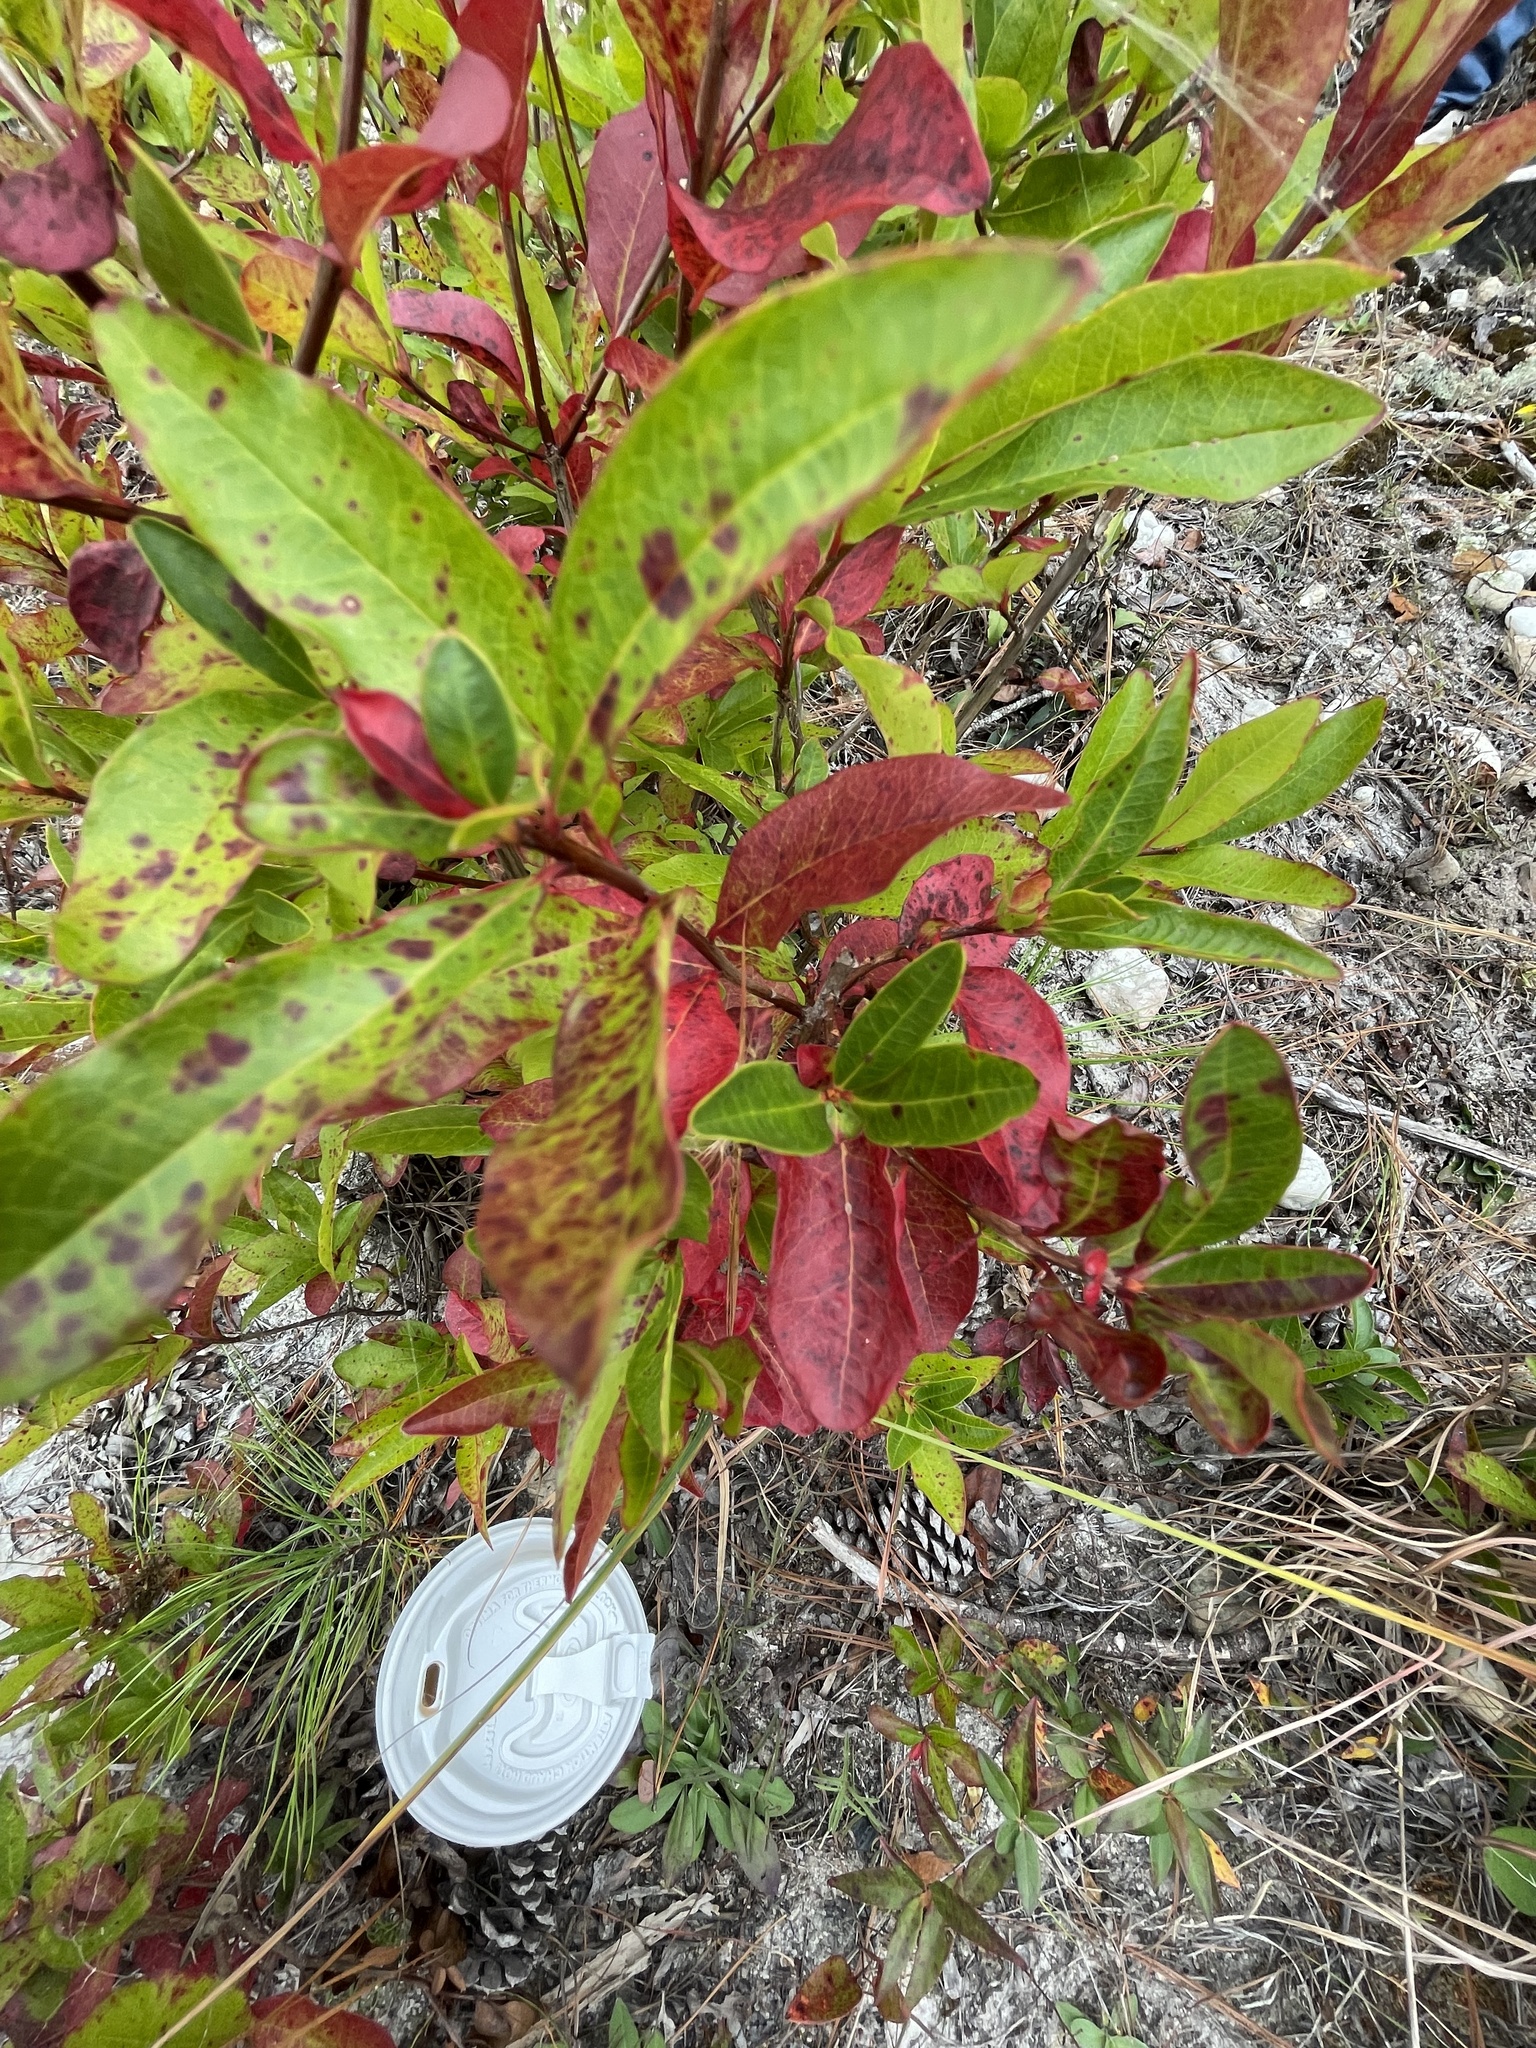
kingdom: Plantae
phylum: Tracheophyta
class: Magnoliopsida
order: Ericales
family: Ericaceae
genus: Oxydendrum
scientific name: Oxydendrum arboreum
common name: Sourwood
